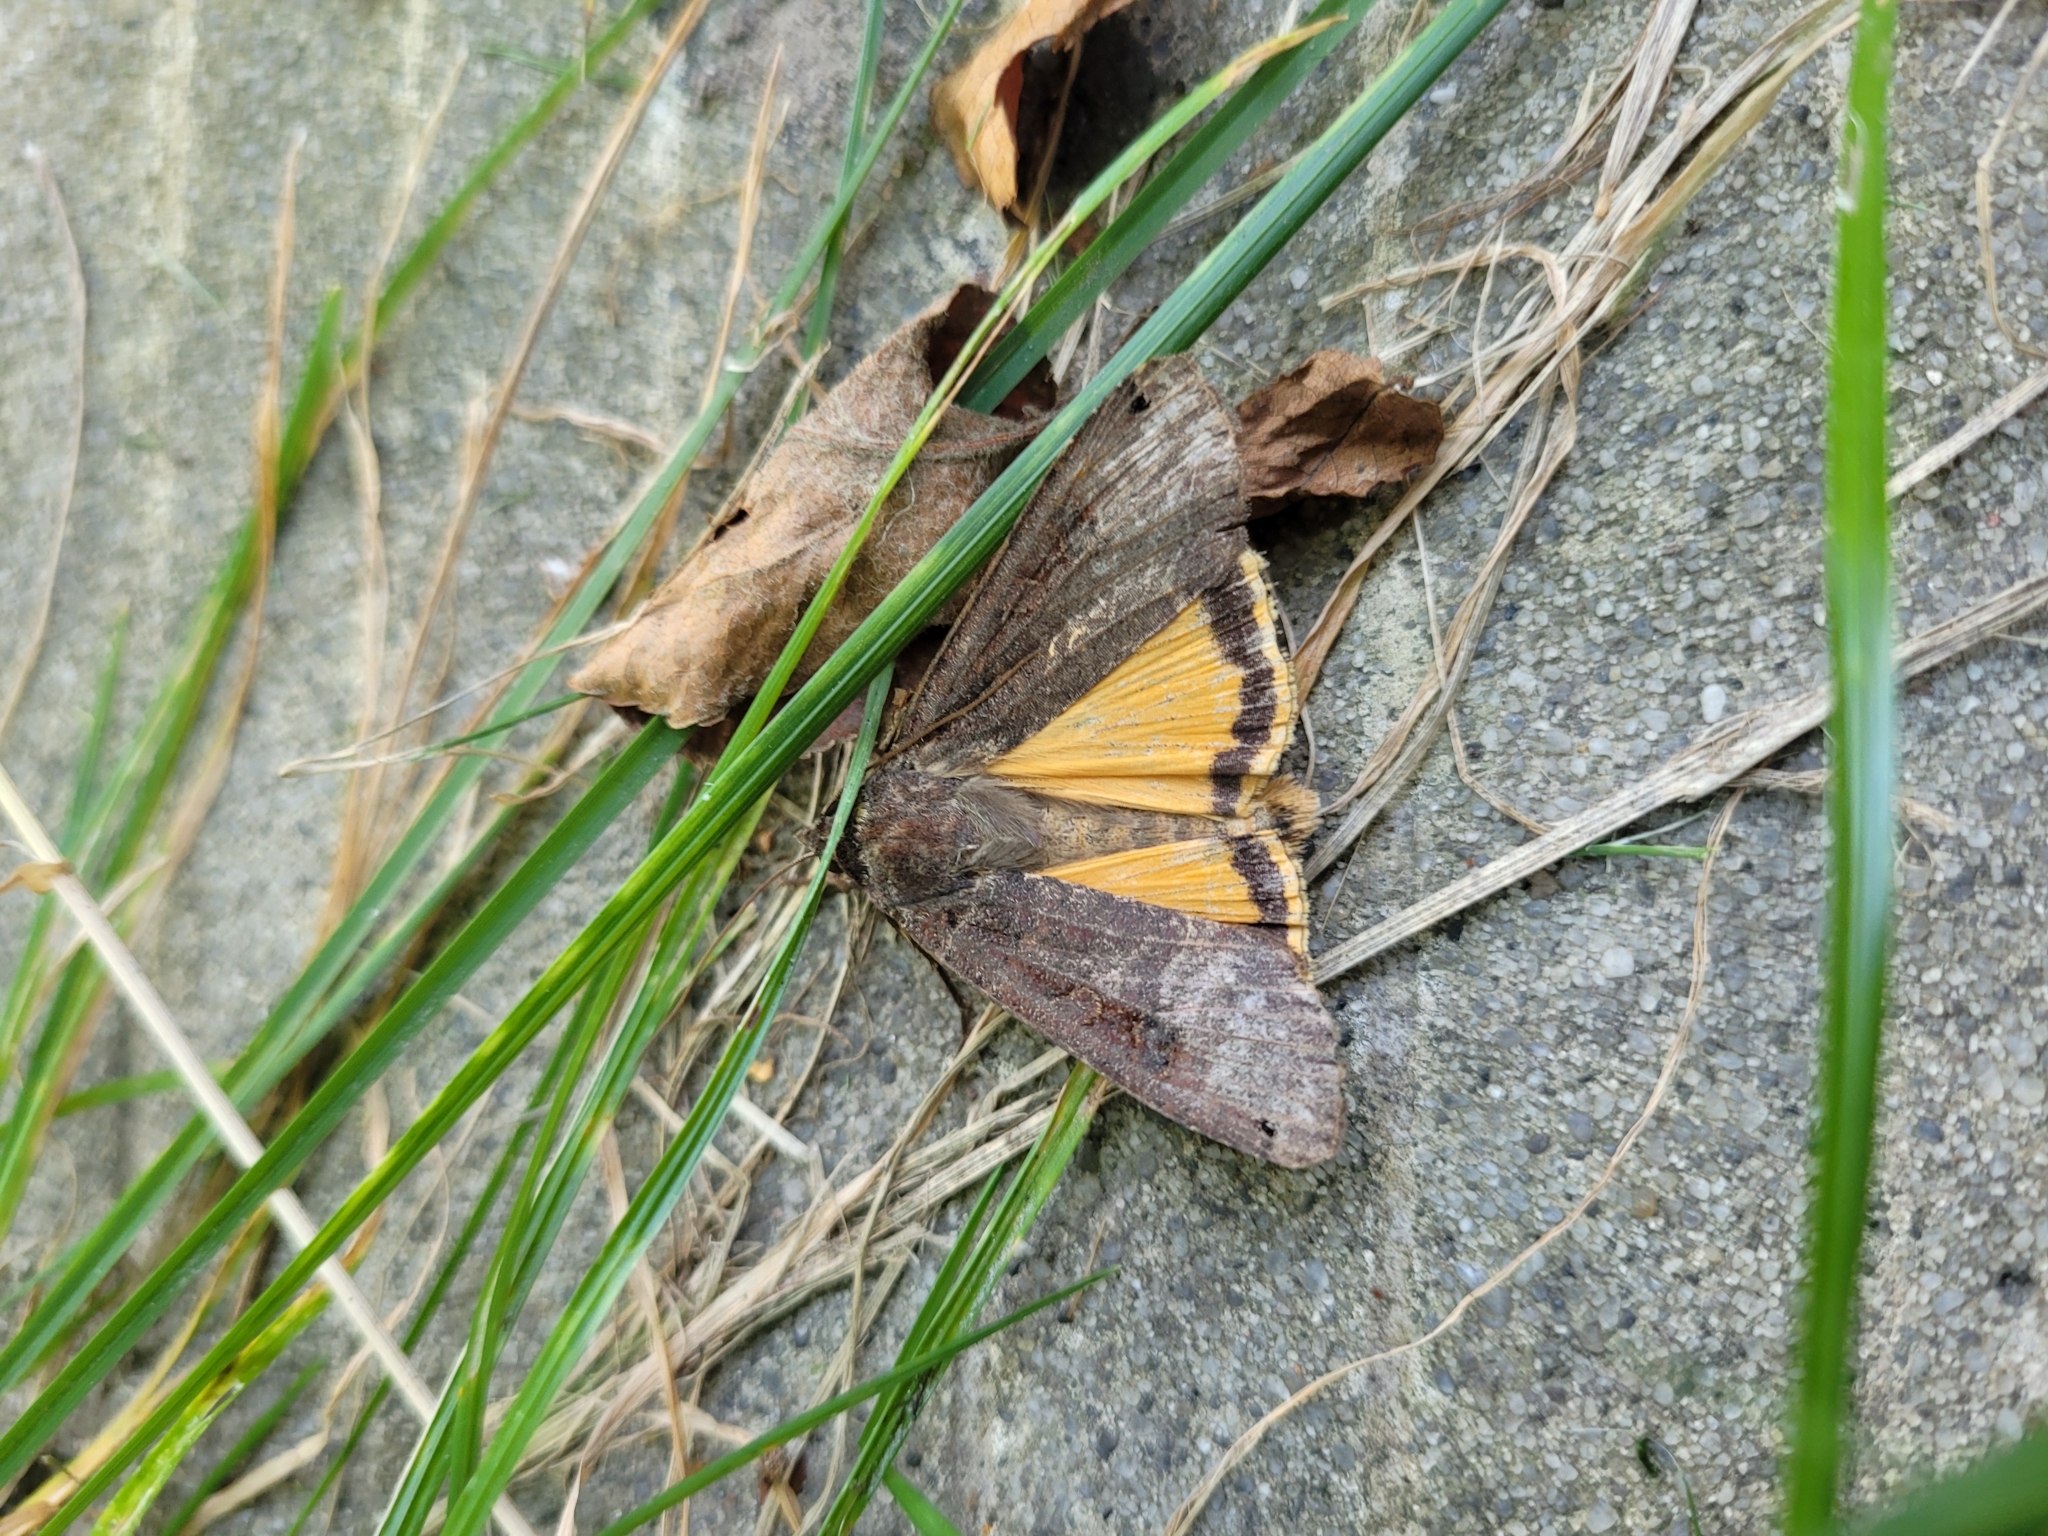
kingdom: Animalia
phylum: Arthropoda
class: Insecta
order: Lepidoptera
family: Noctuidae
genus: Noctua
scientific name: Noctua pronuba
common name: Large yellow underwing
